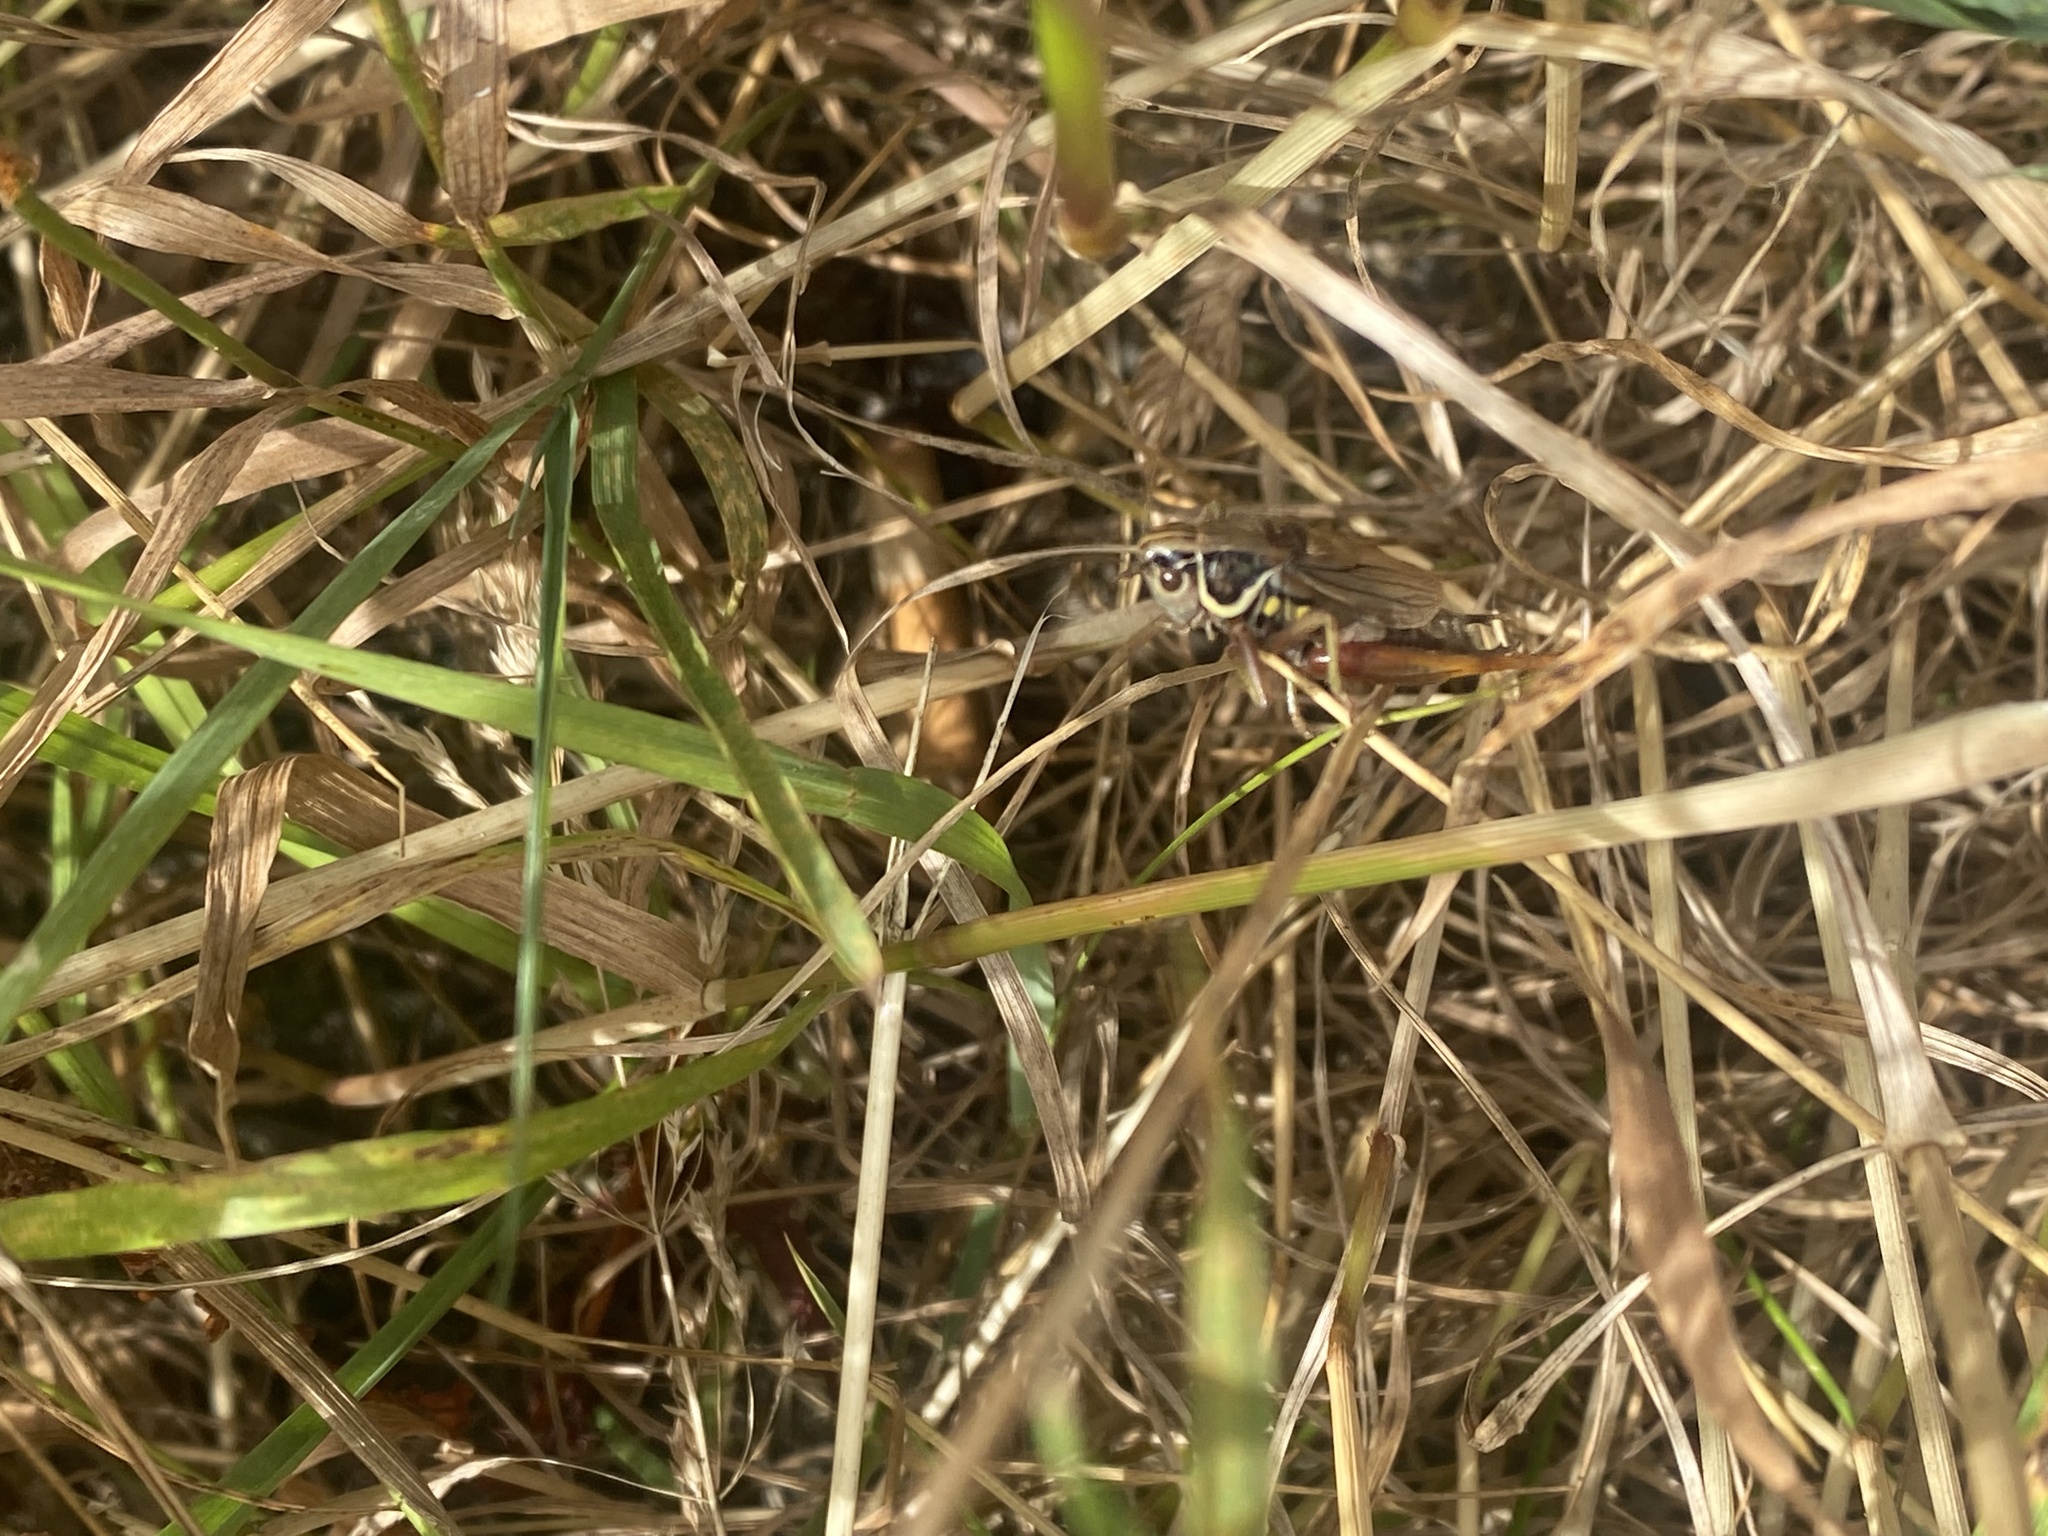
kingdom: Animalia
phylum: Arthropoda
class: Insecta
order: Orthoptera
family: Tettigoniidae
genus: Roeseliana
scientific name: Roeseliana roeselii
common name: Roesel's bush cricket
